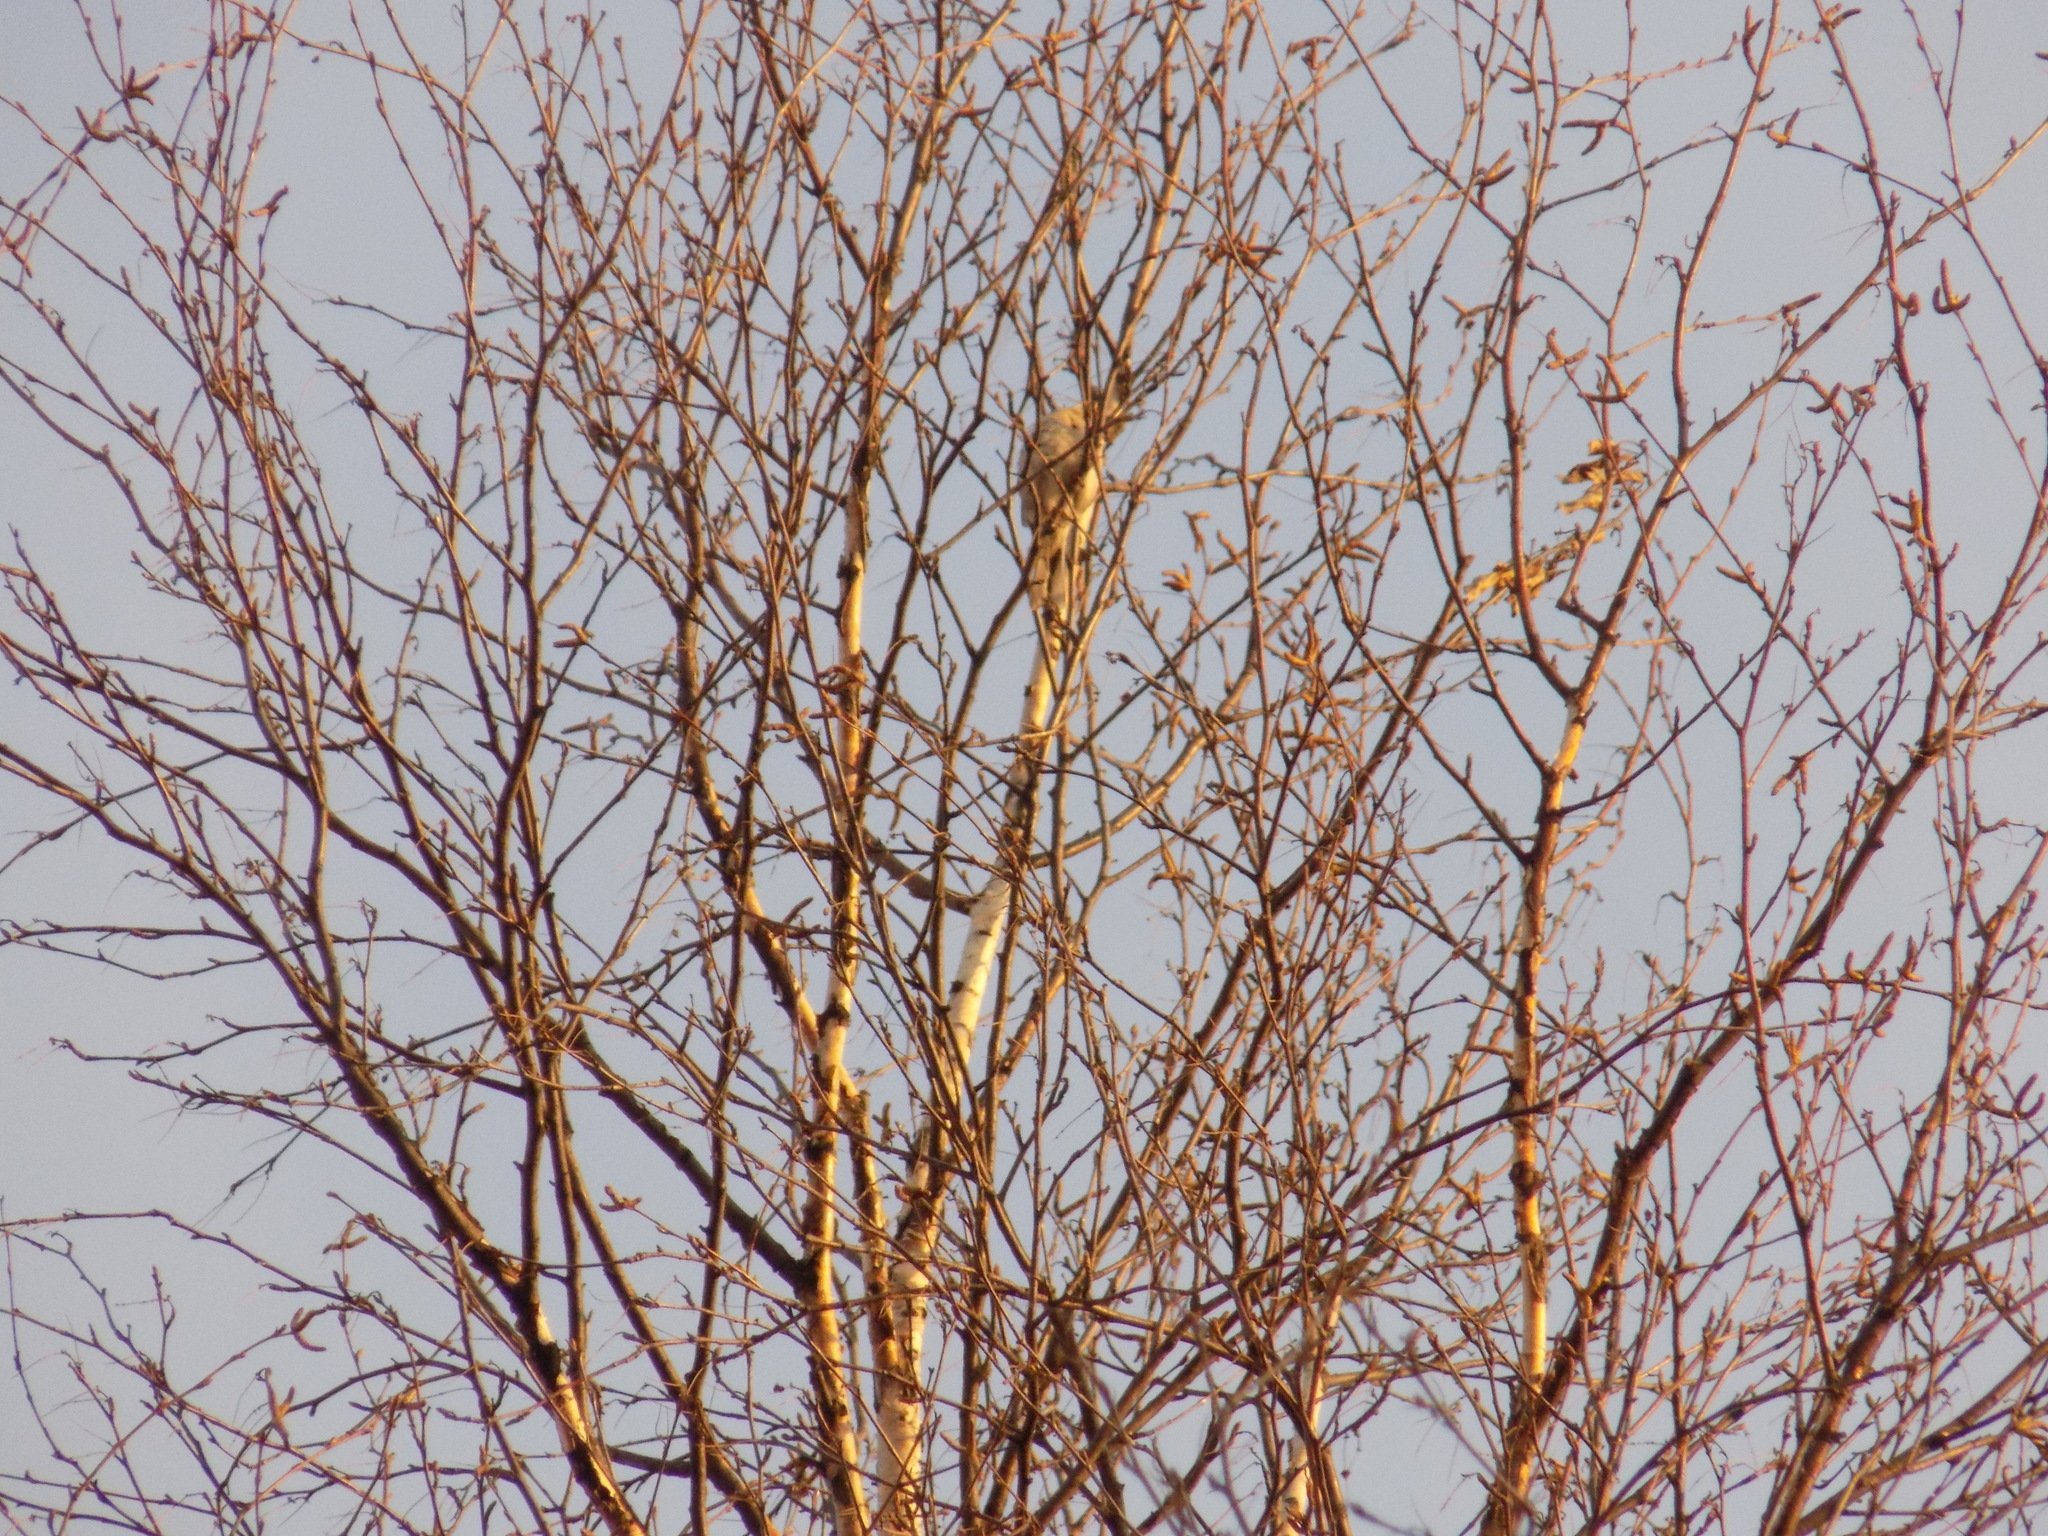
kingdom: Animalia
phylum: Chordata
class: Aves
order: Passeriformes
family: Laniidae
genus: Lanius
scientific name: Lanius borealis
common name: Northern shrike
